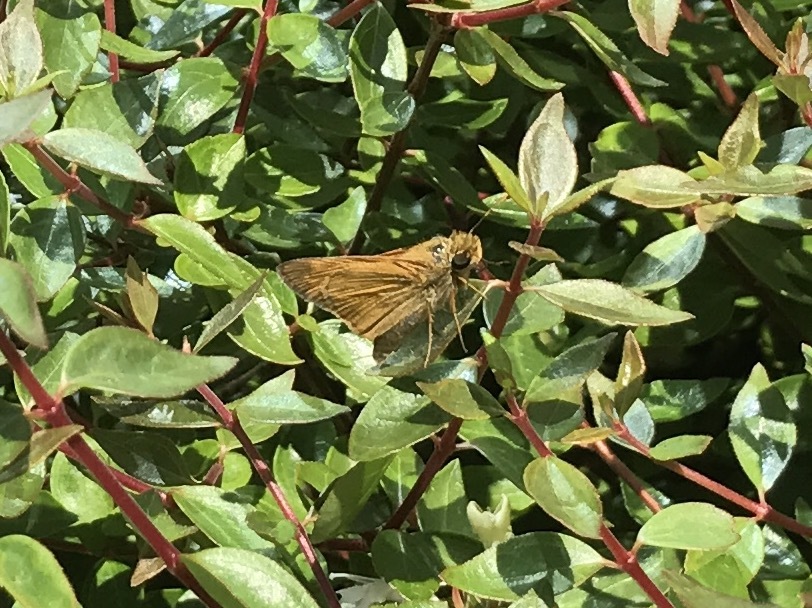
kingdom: Animalia
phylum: Arthropoda
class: Insecta
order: Lepidoptera
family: Hesperiidae
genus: Atalopedes
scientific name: Atalopedes
